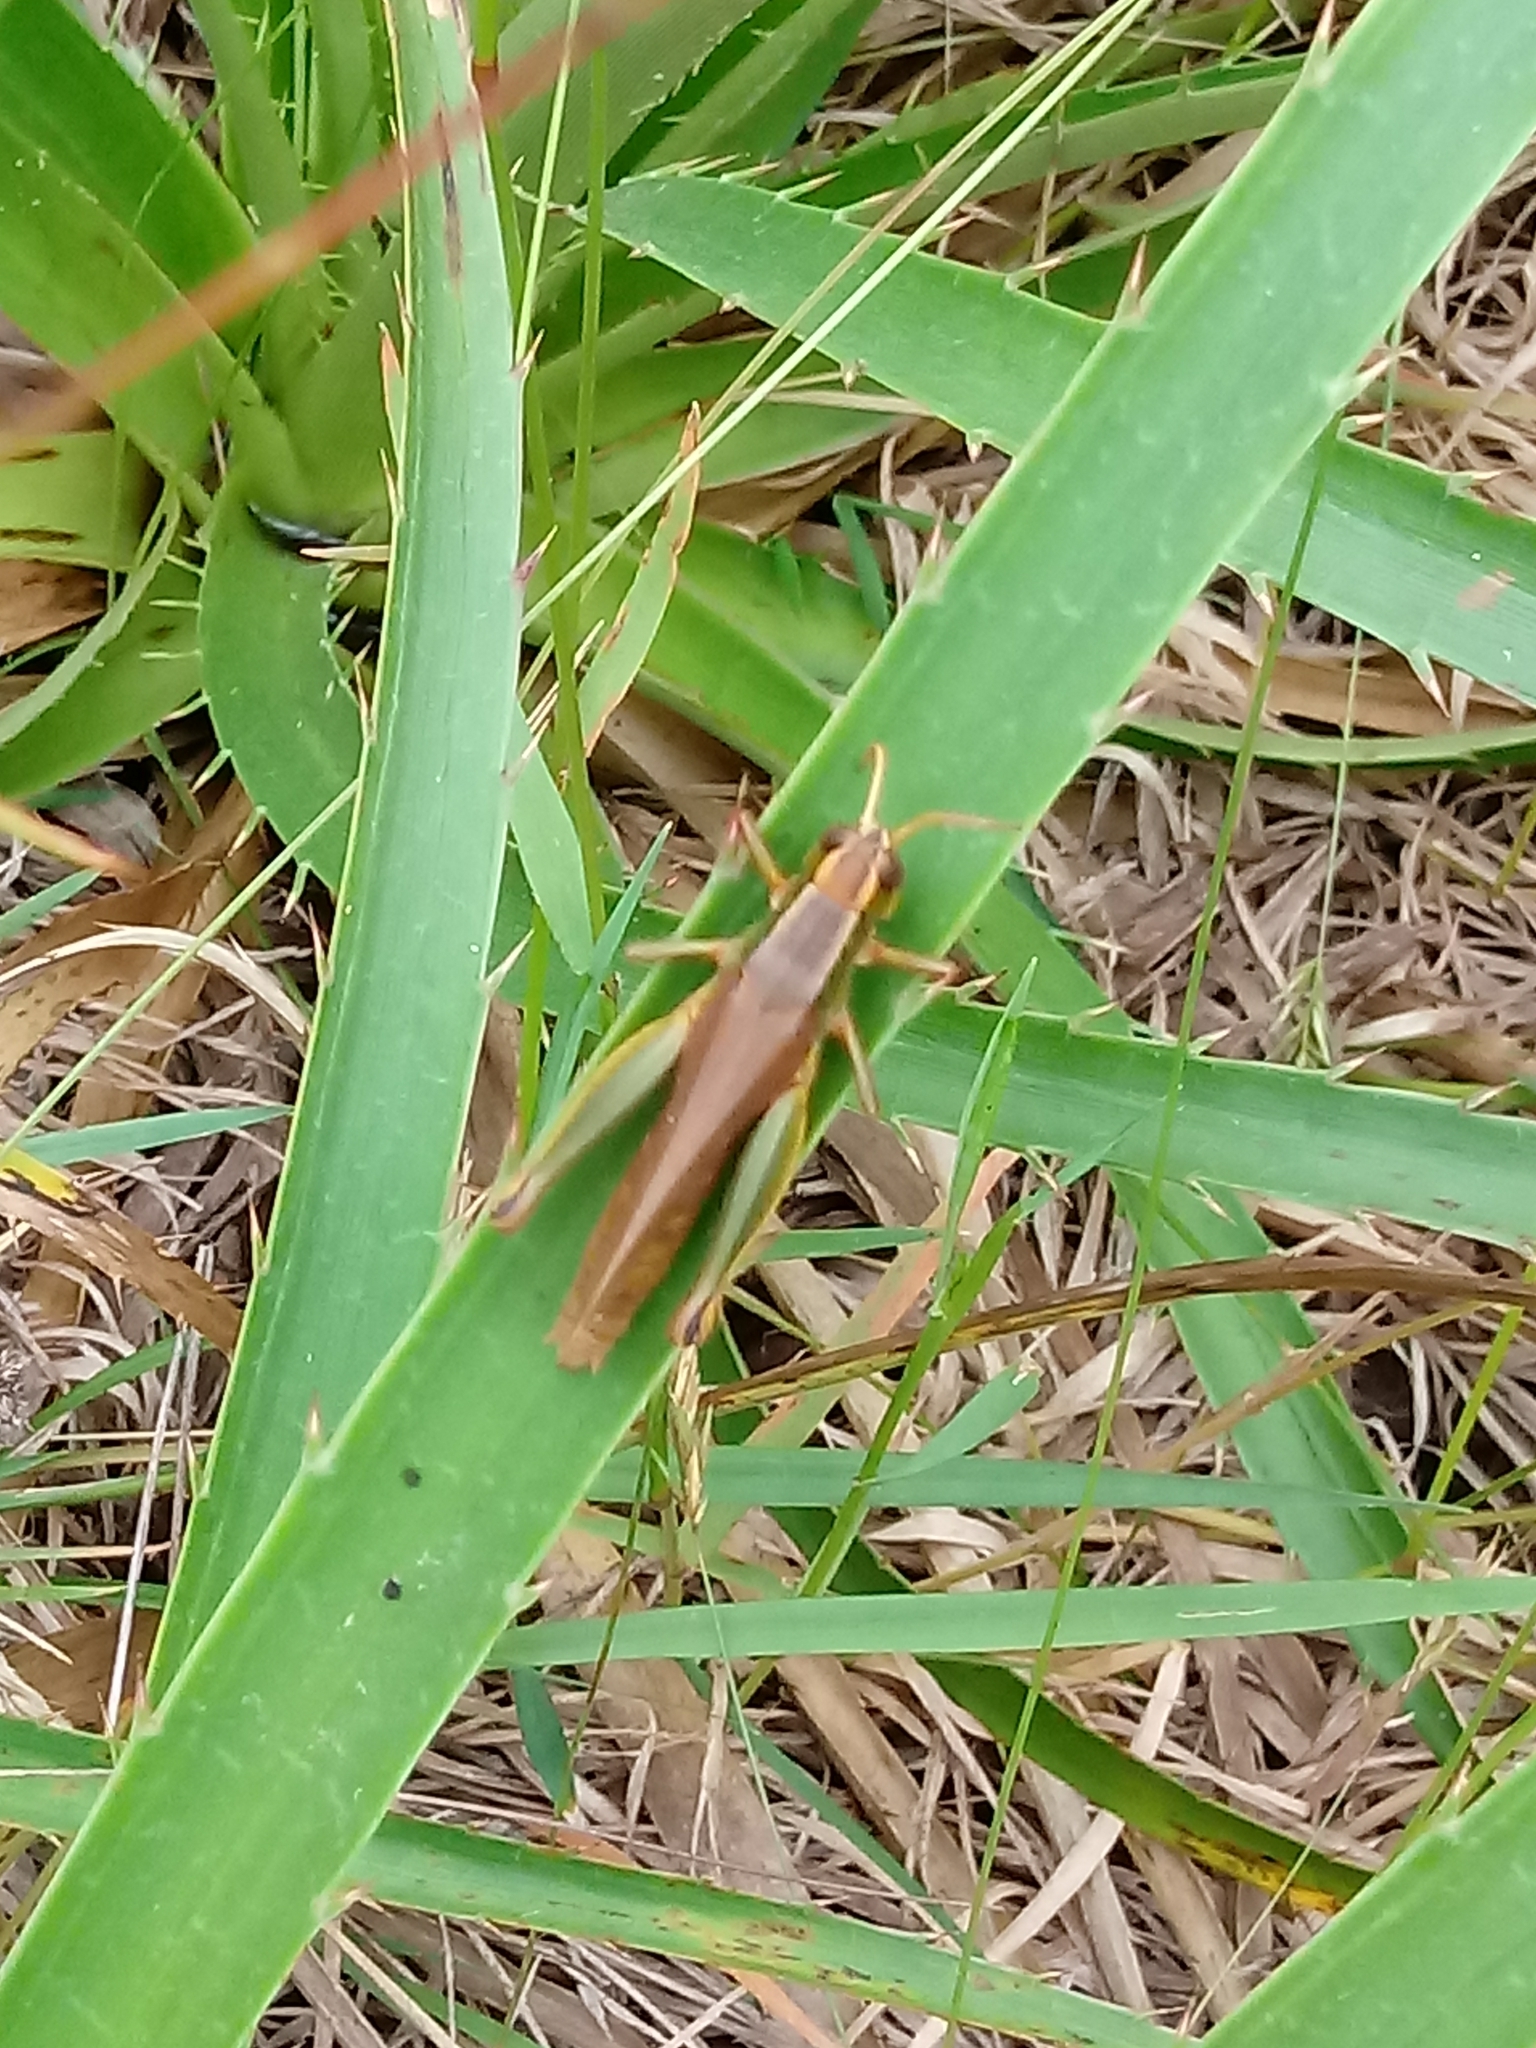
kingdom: Animalia
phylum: Arthropoda
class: Insecta
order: Orthoptera
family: Acrididae
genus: Scotussa
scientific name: Scotussa cliens
